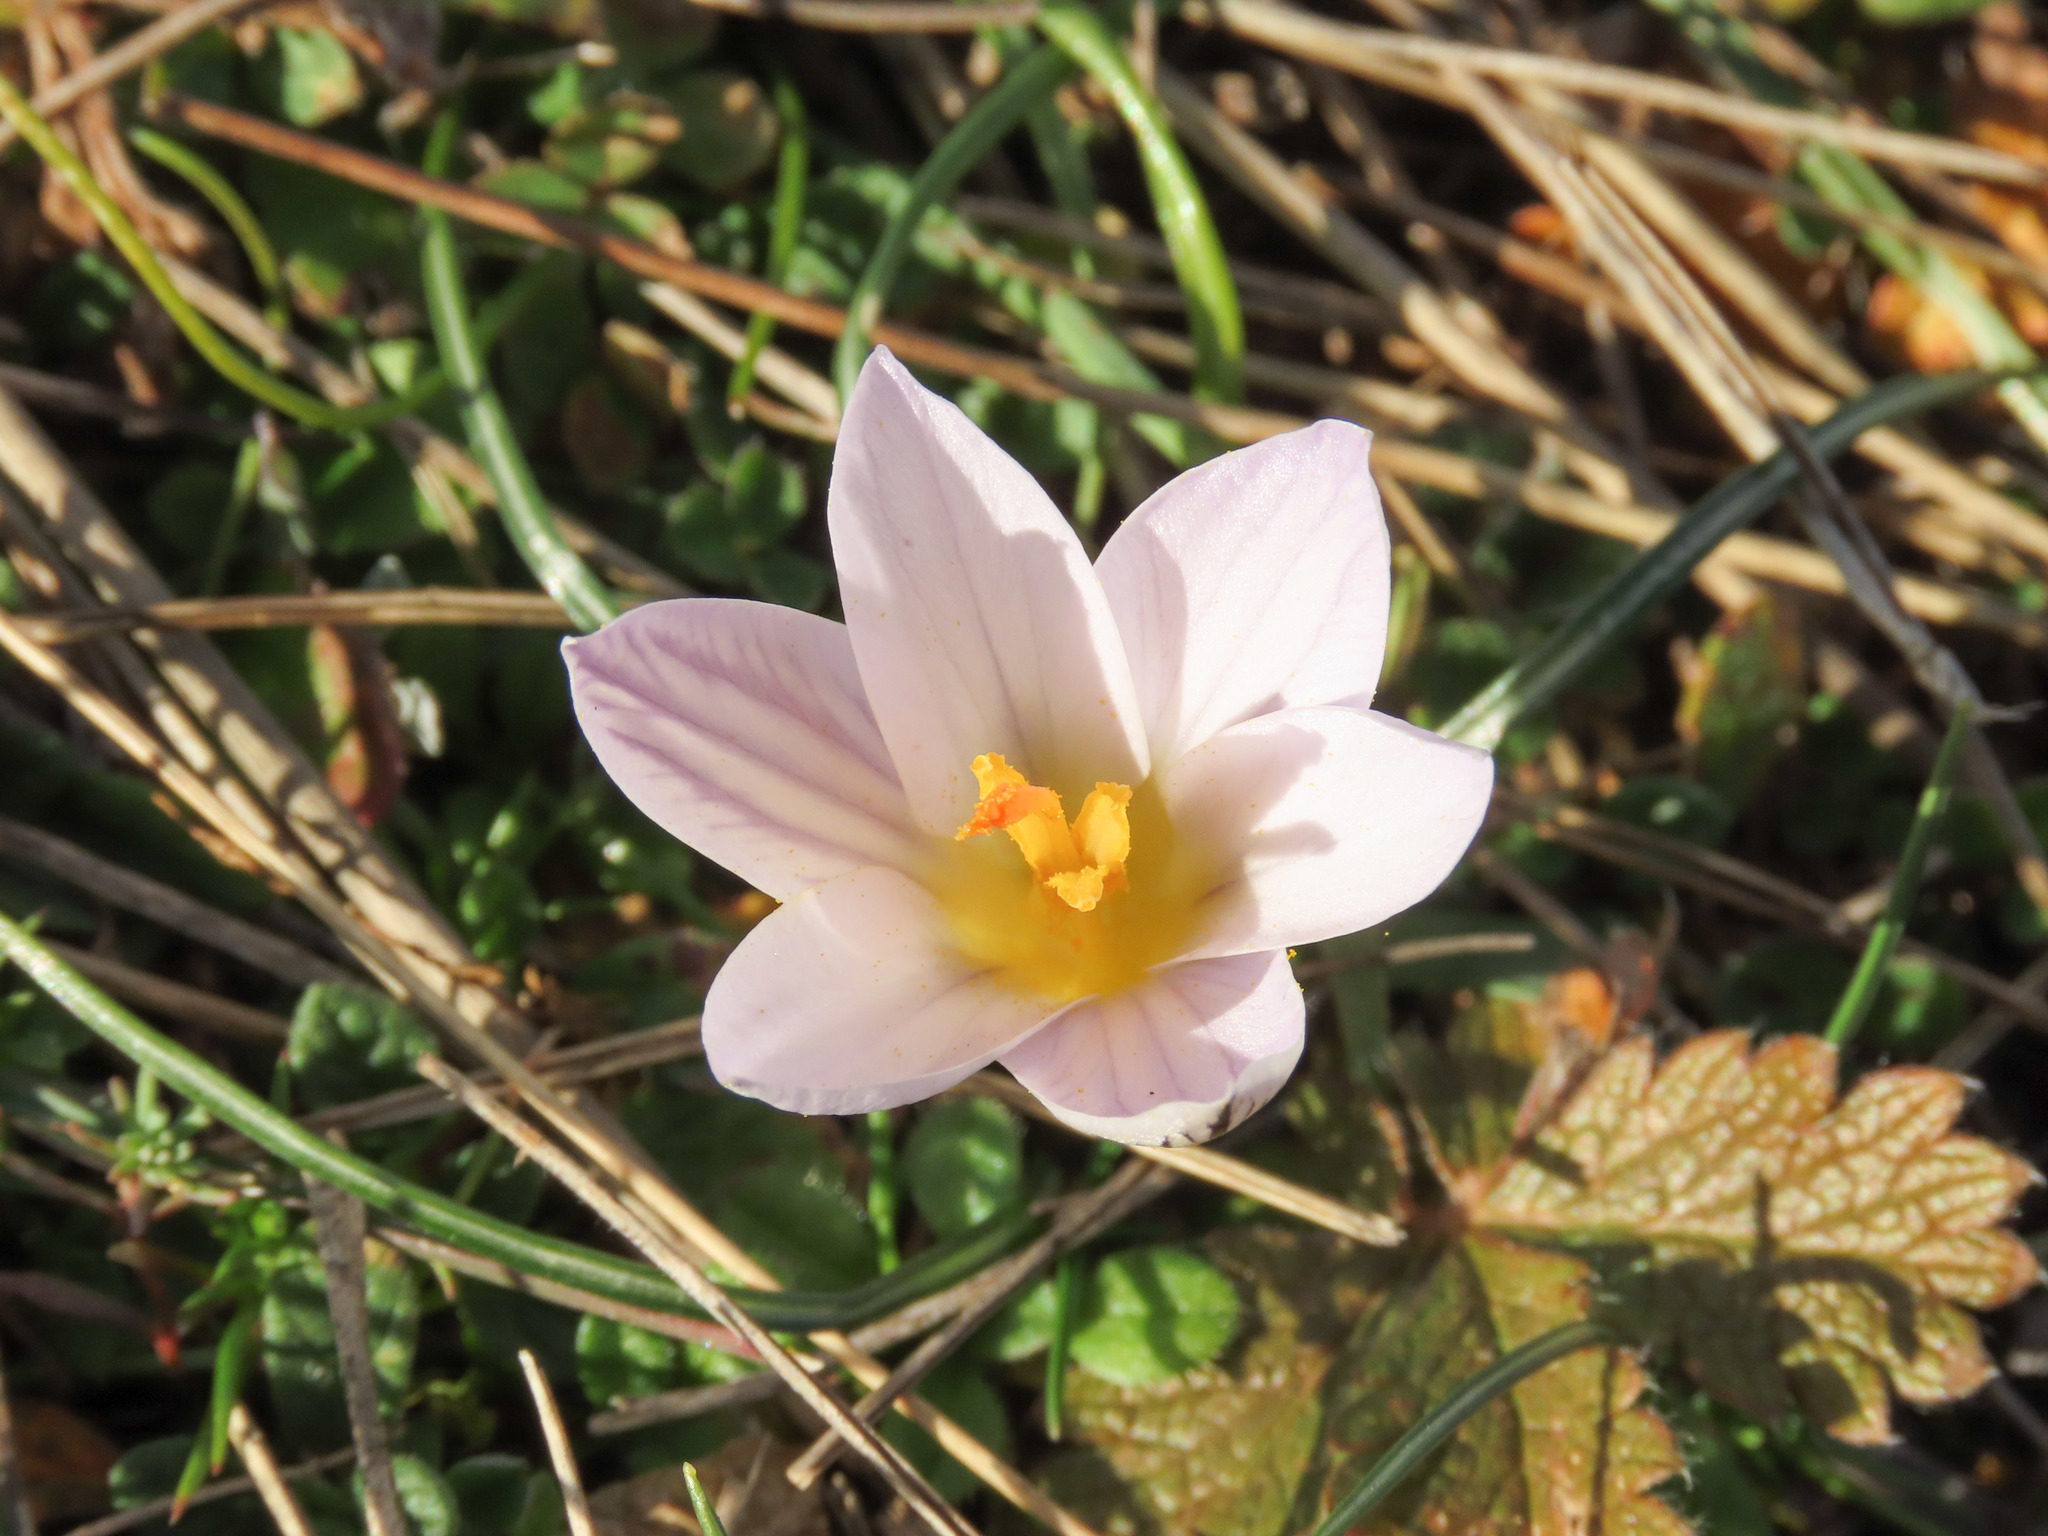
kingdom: Plantae
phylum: Tracheophyta
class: Liliopsida
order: Asparagales
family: Iridaceae
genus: Crocus
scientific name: Crocus variegatus
